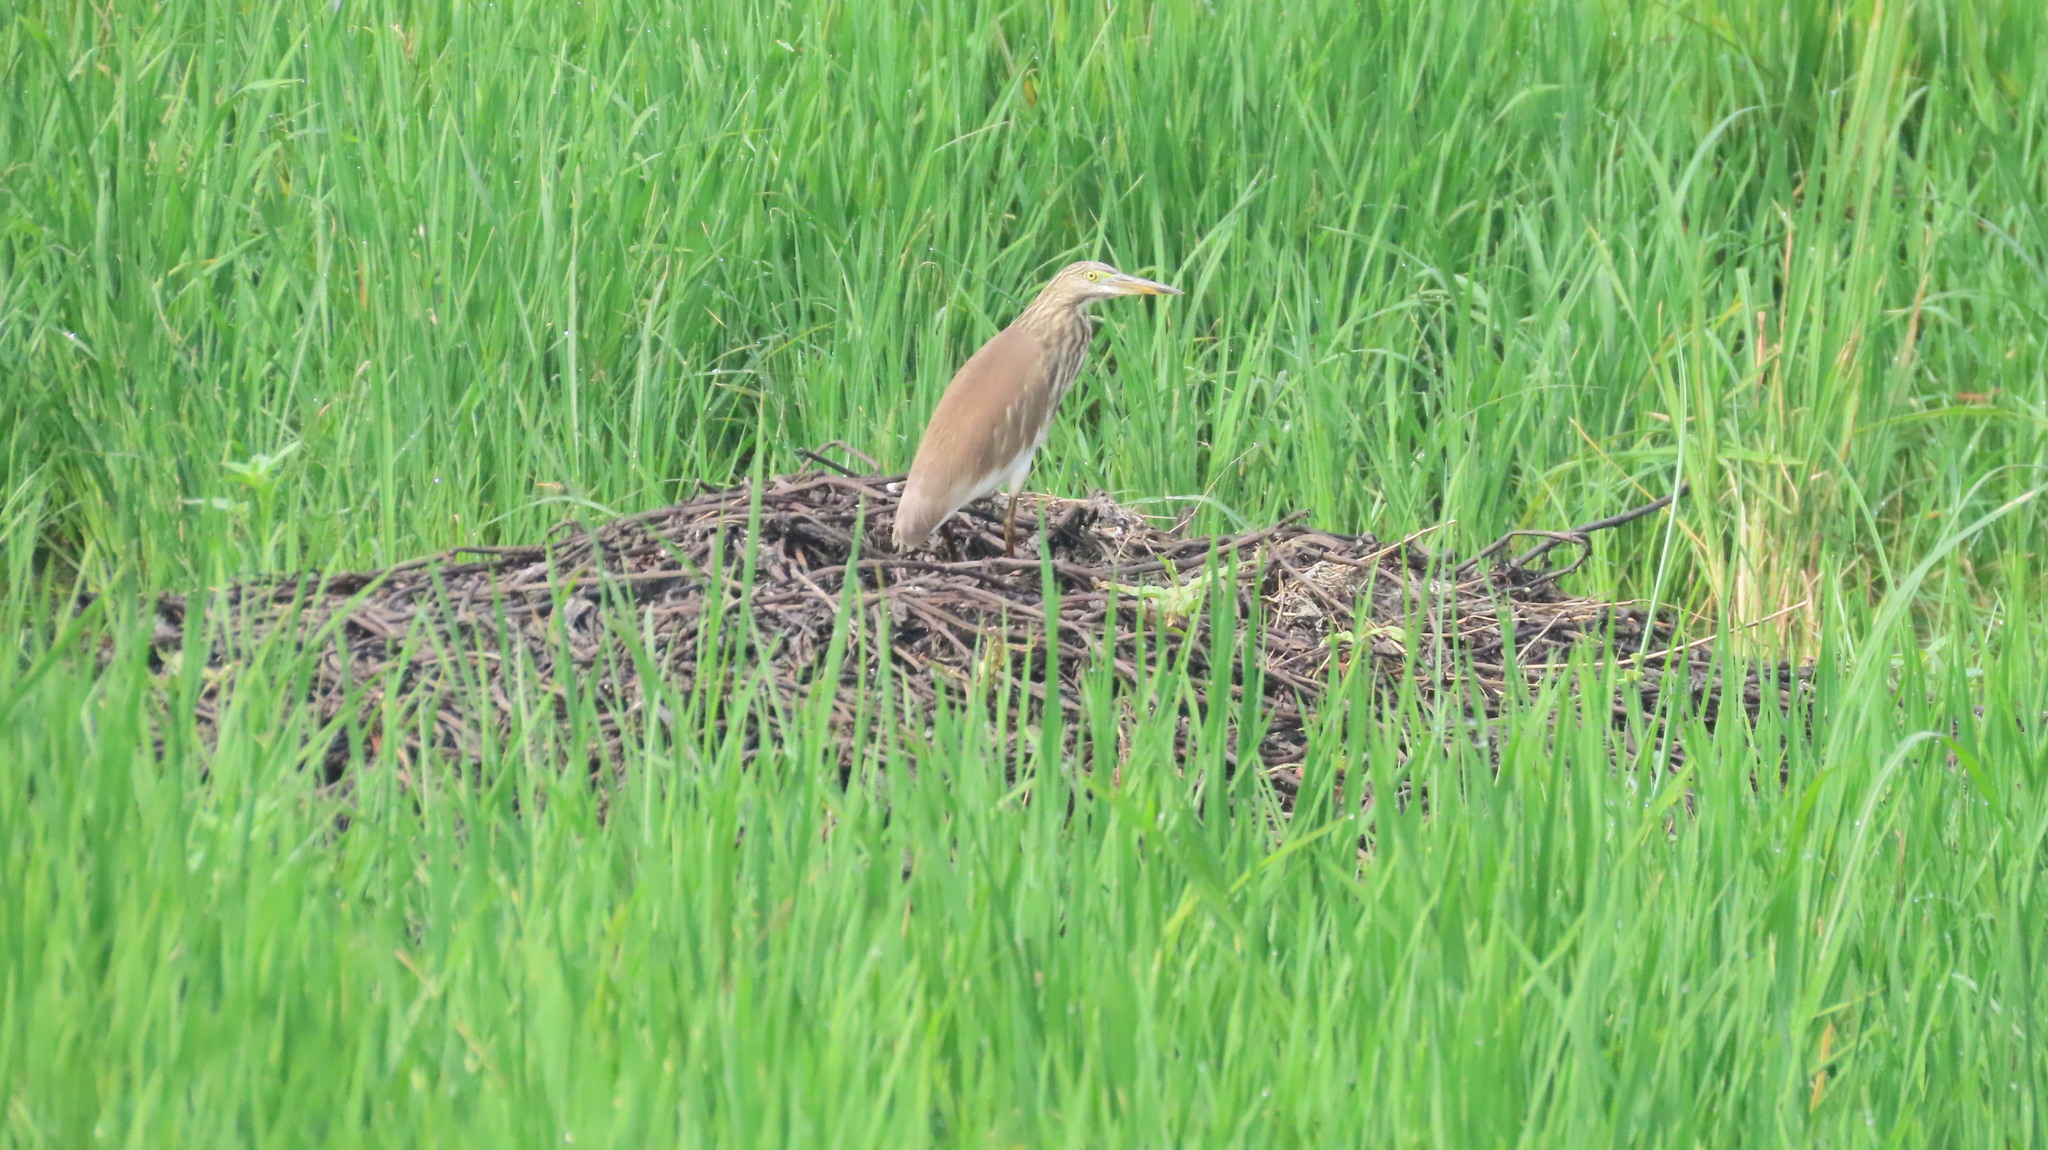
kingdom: Animalia
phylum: Chordata
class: Aves
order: Pelecaniformes
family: Ardeidae
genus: Ardeola
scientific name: Ardeola grayii
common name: Indian pond heron
